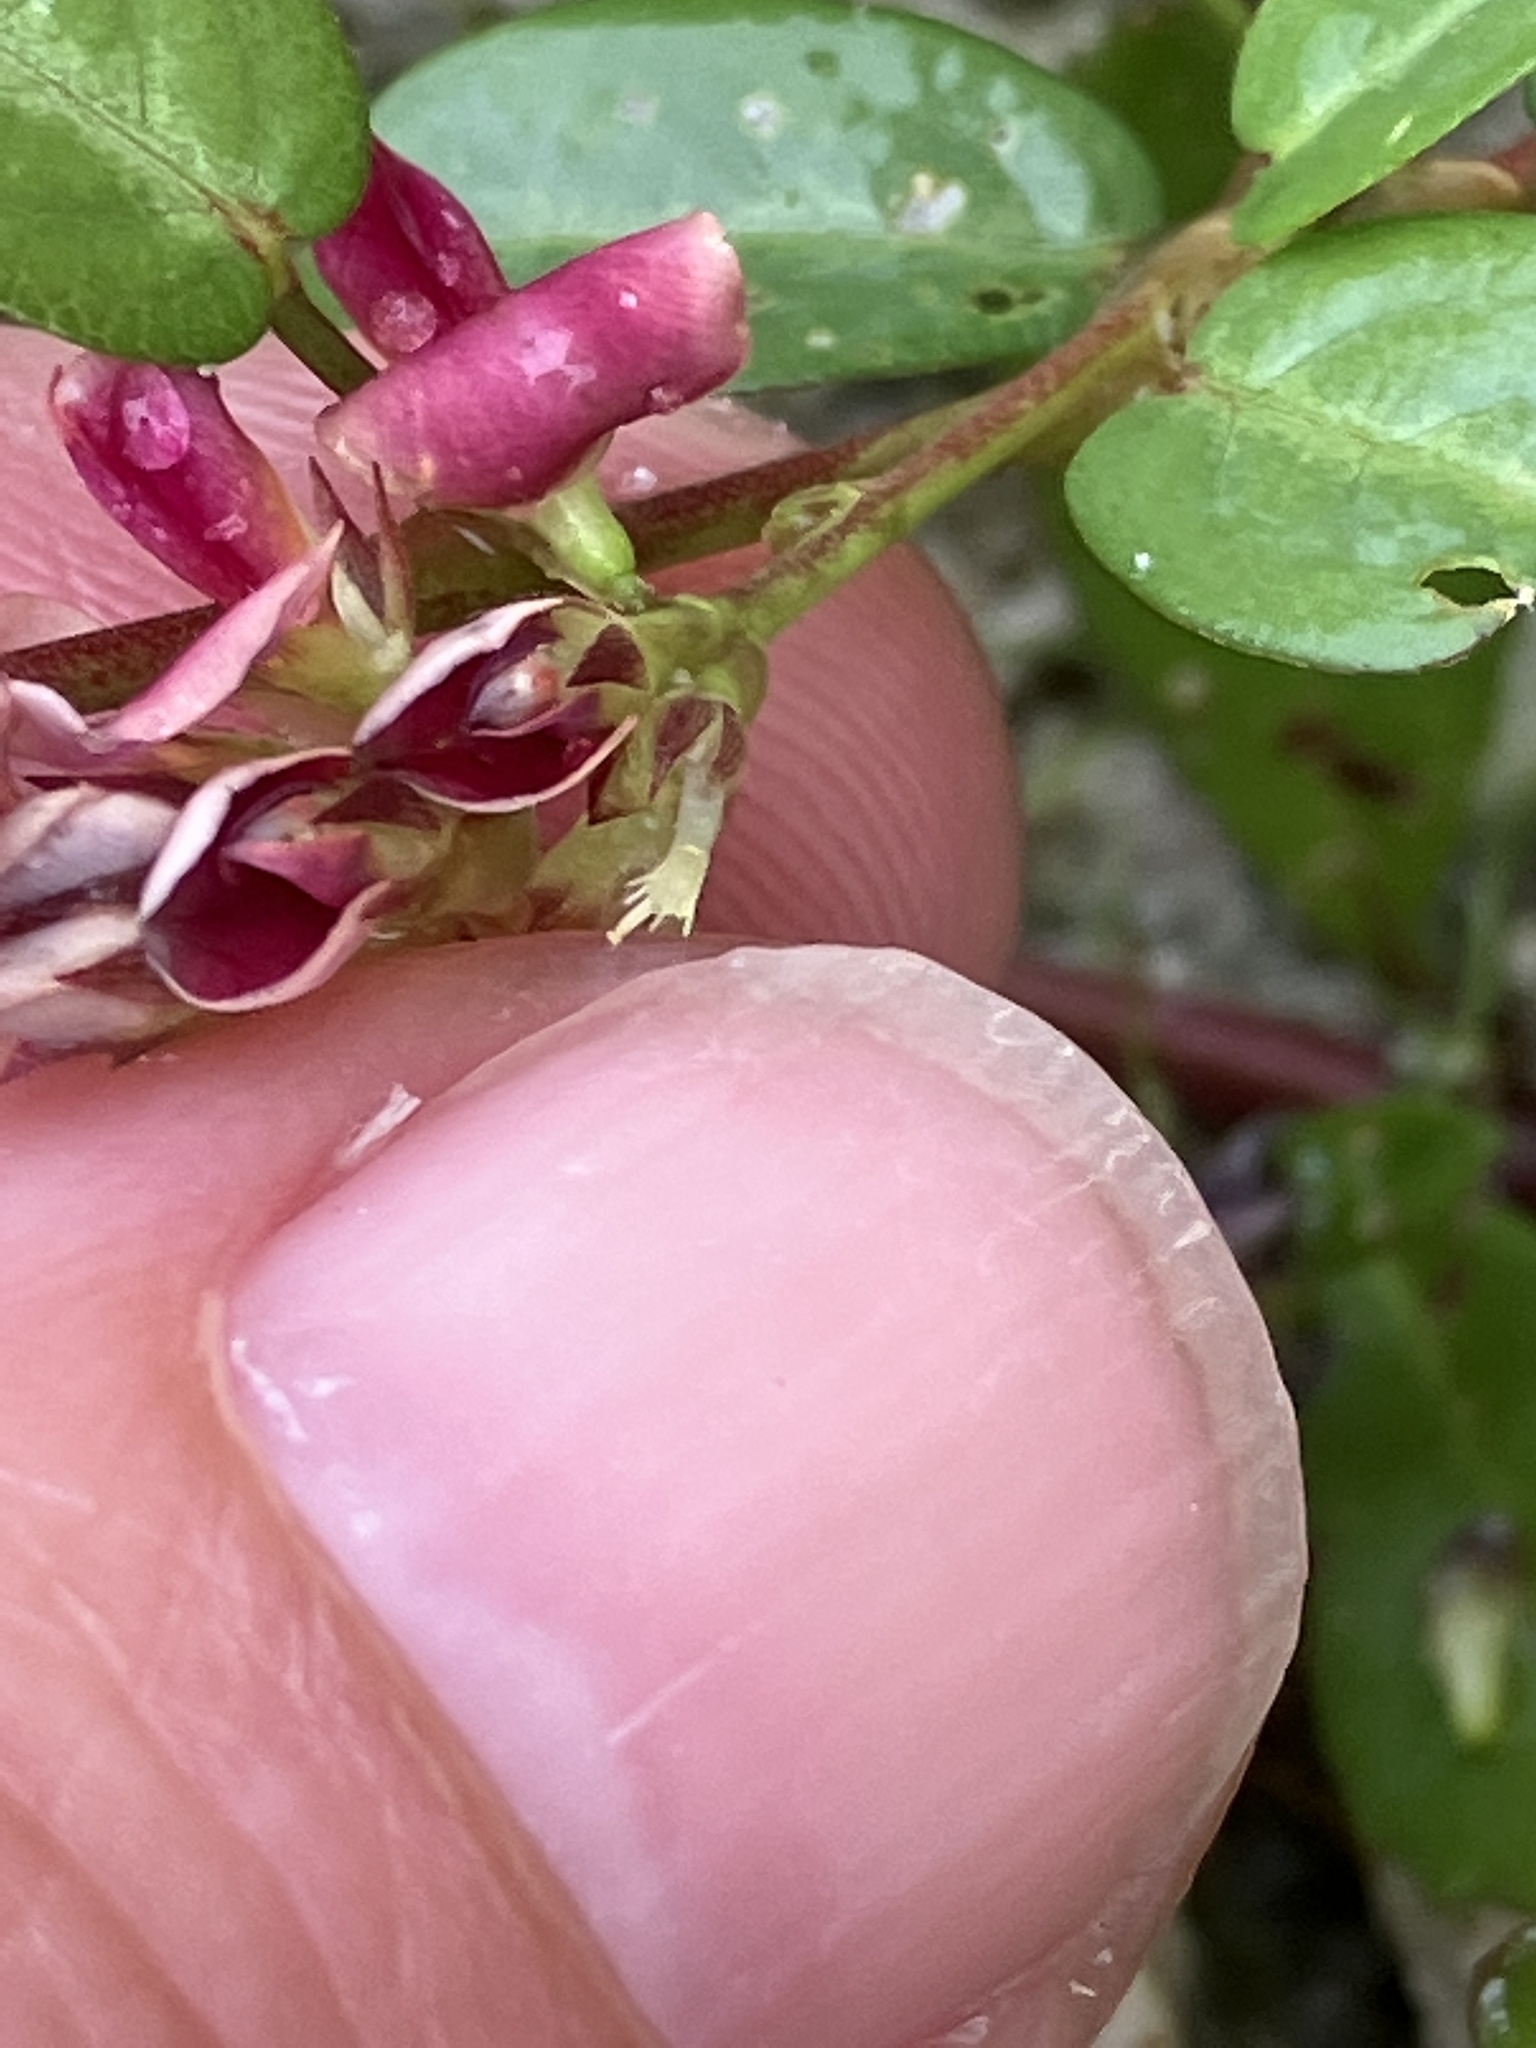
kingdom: Plantae
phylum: Tracheophyta
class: Magnoliopsida
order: Fabales
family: Fabaceae
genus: Alysicarpus
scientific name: Alysicarpus vaginalis
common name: White moneywort
